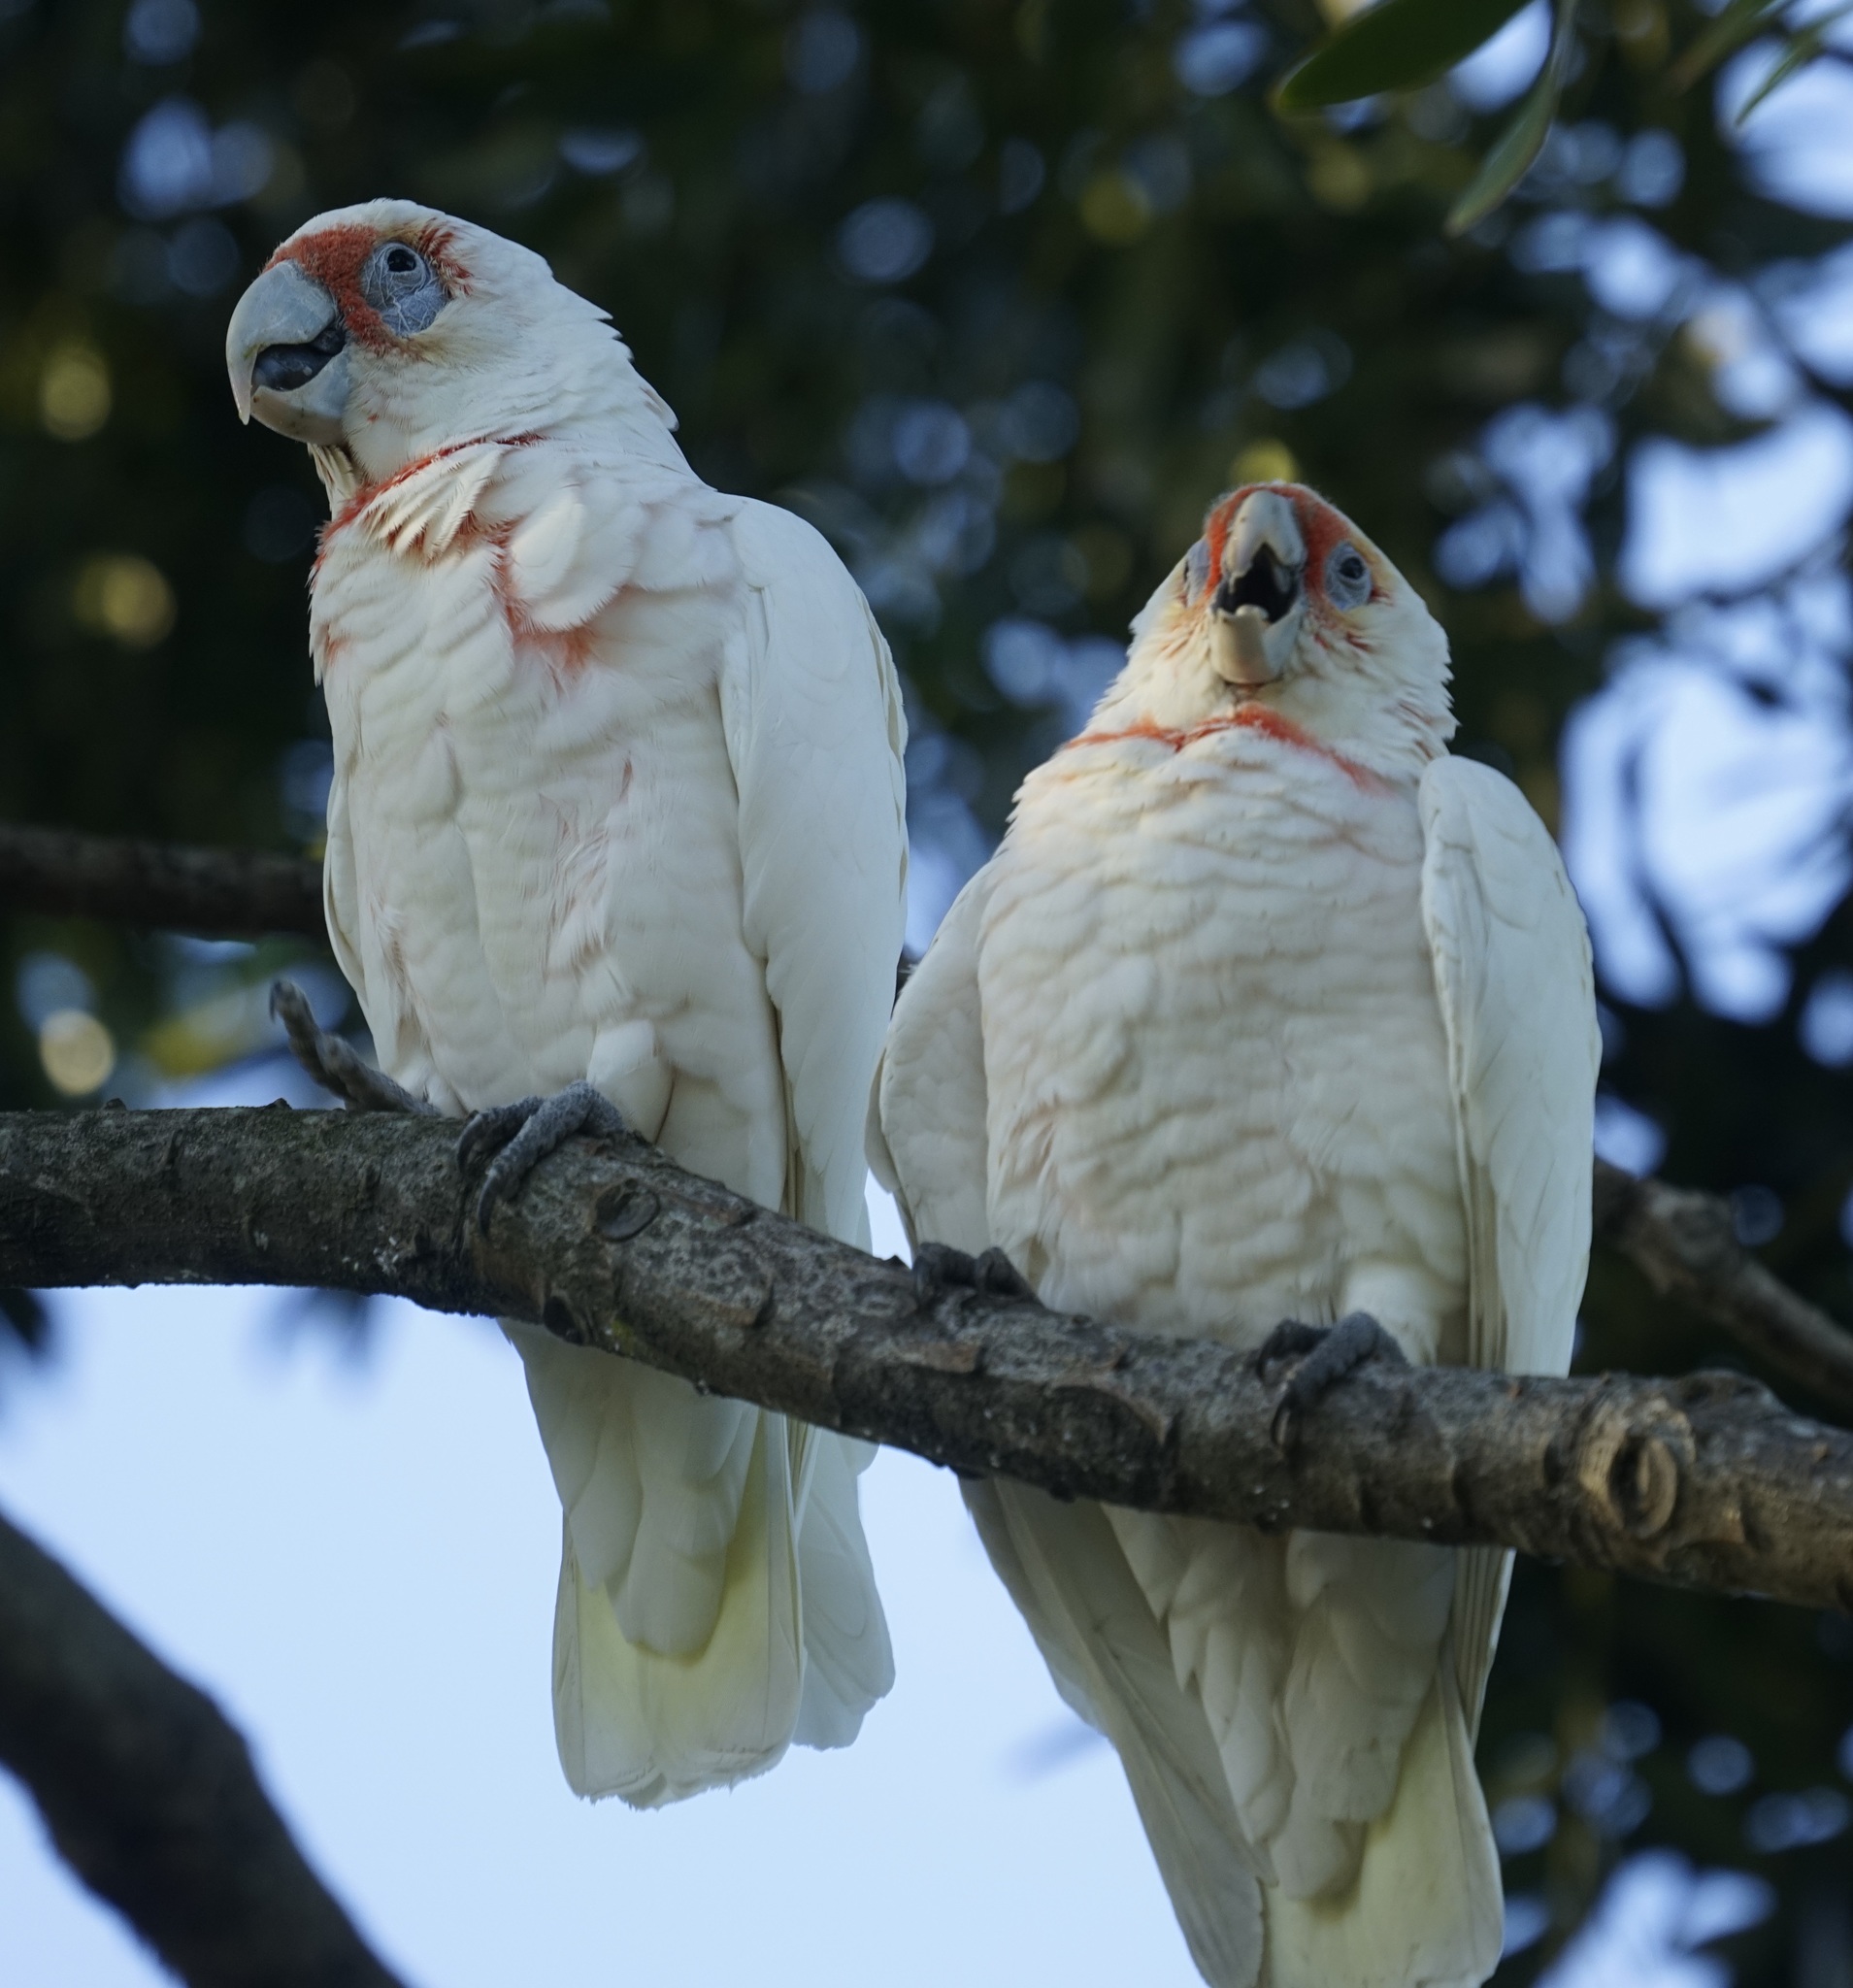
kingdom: Animalia
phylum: Chordata
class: Aves
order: Psittaciformes
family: Psittacidae
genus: Cacatua
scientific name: Cacatua tenuirostris
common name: Long-billed corella
